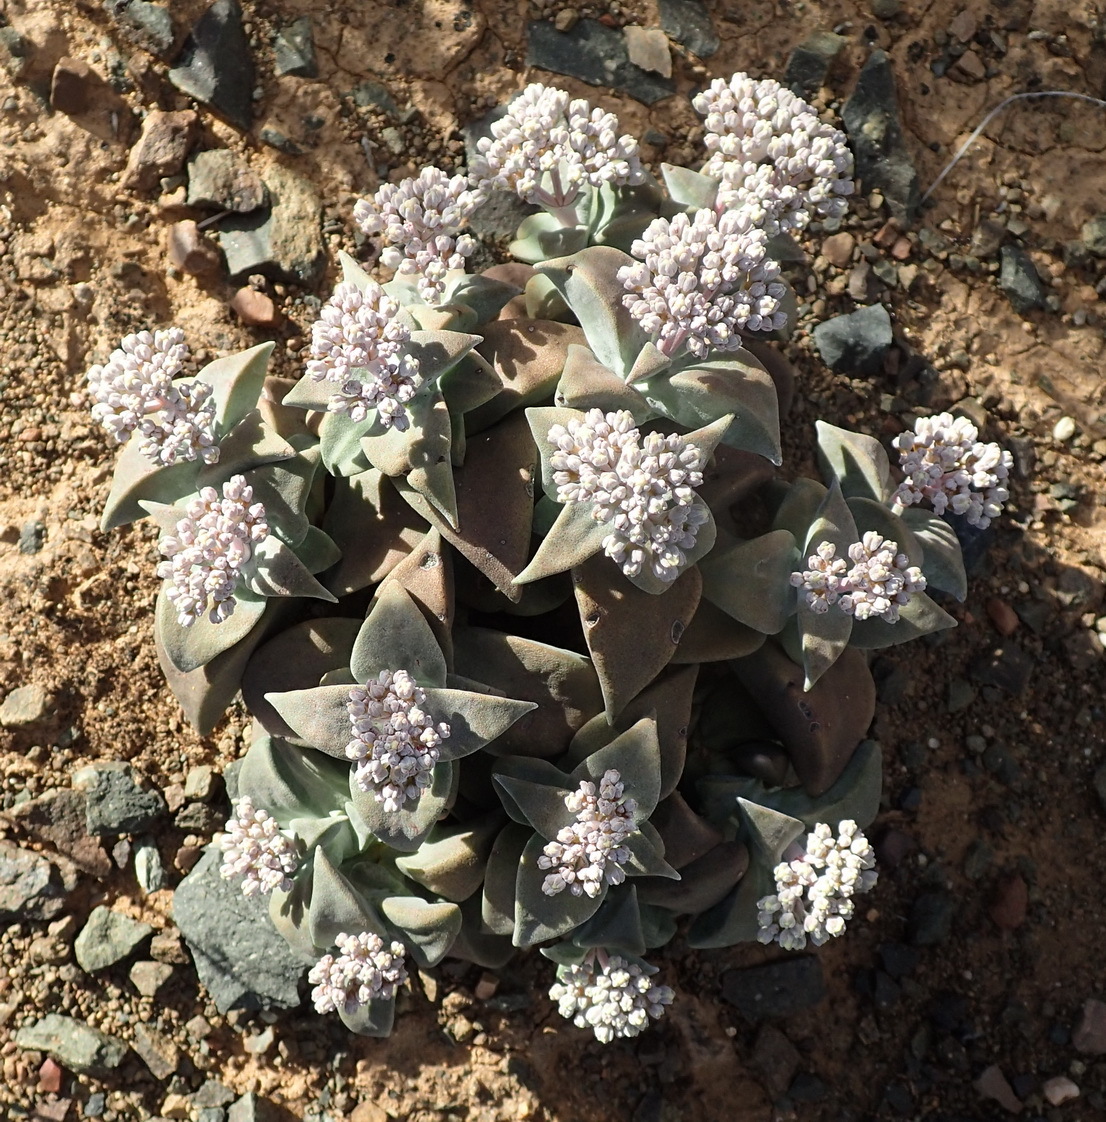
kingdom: Plantae
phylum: Tracheophyta
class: Magnoliopsida
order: Saxifragales
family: Crassulaceae
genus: Crassula
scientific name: Crassula deltoidea
